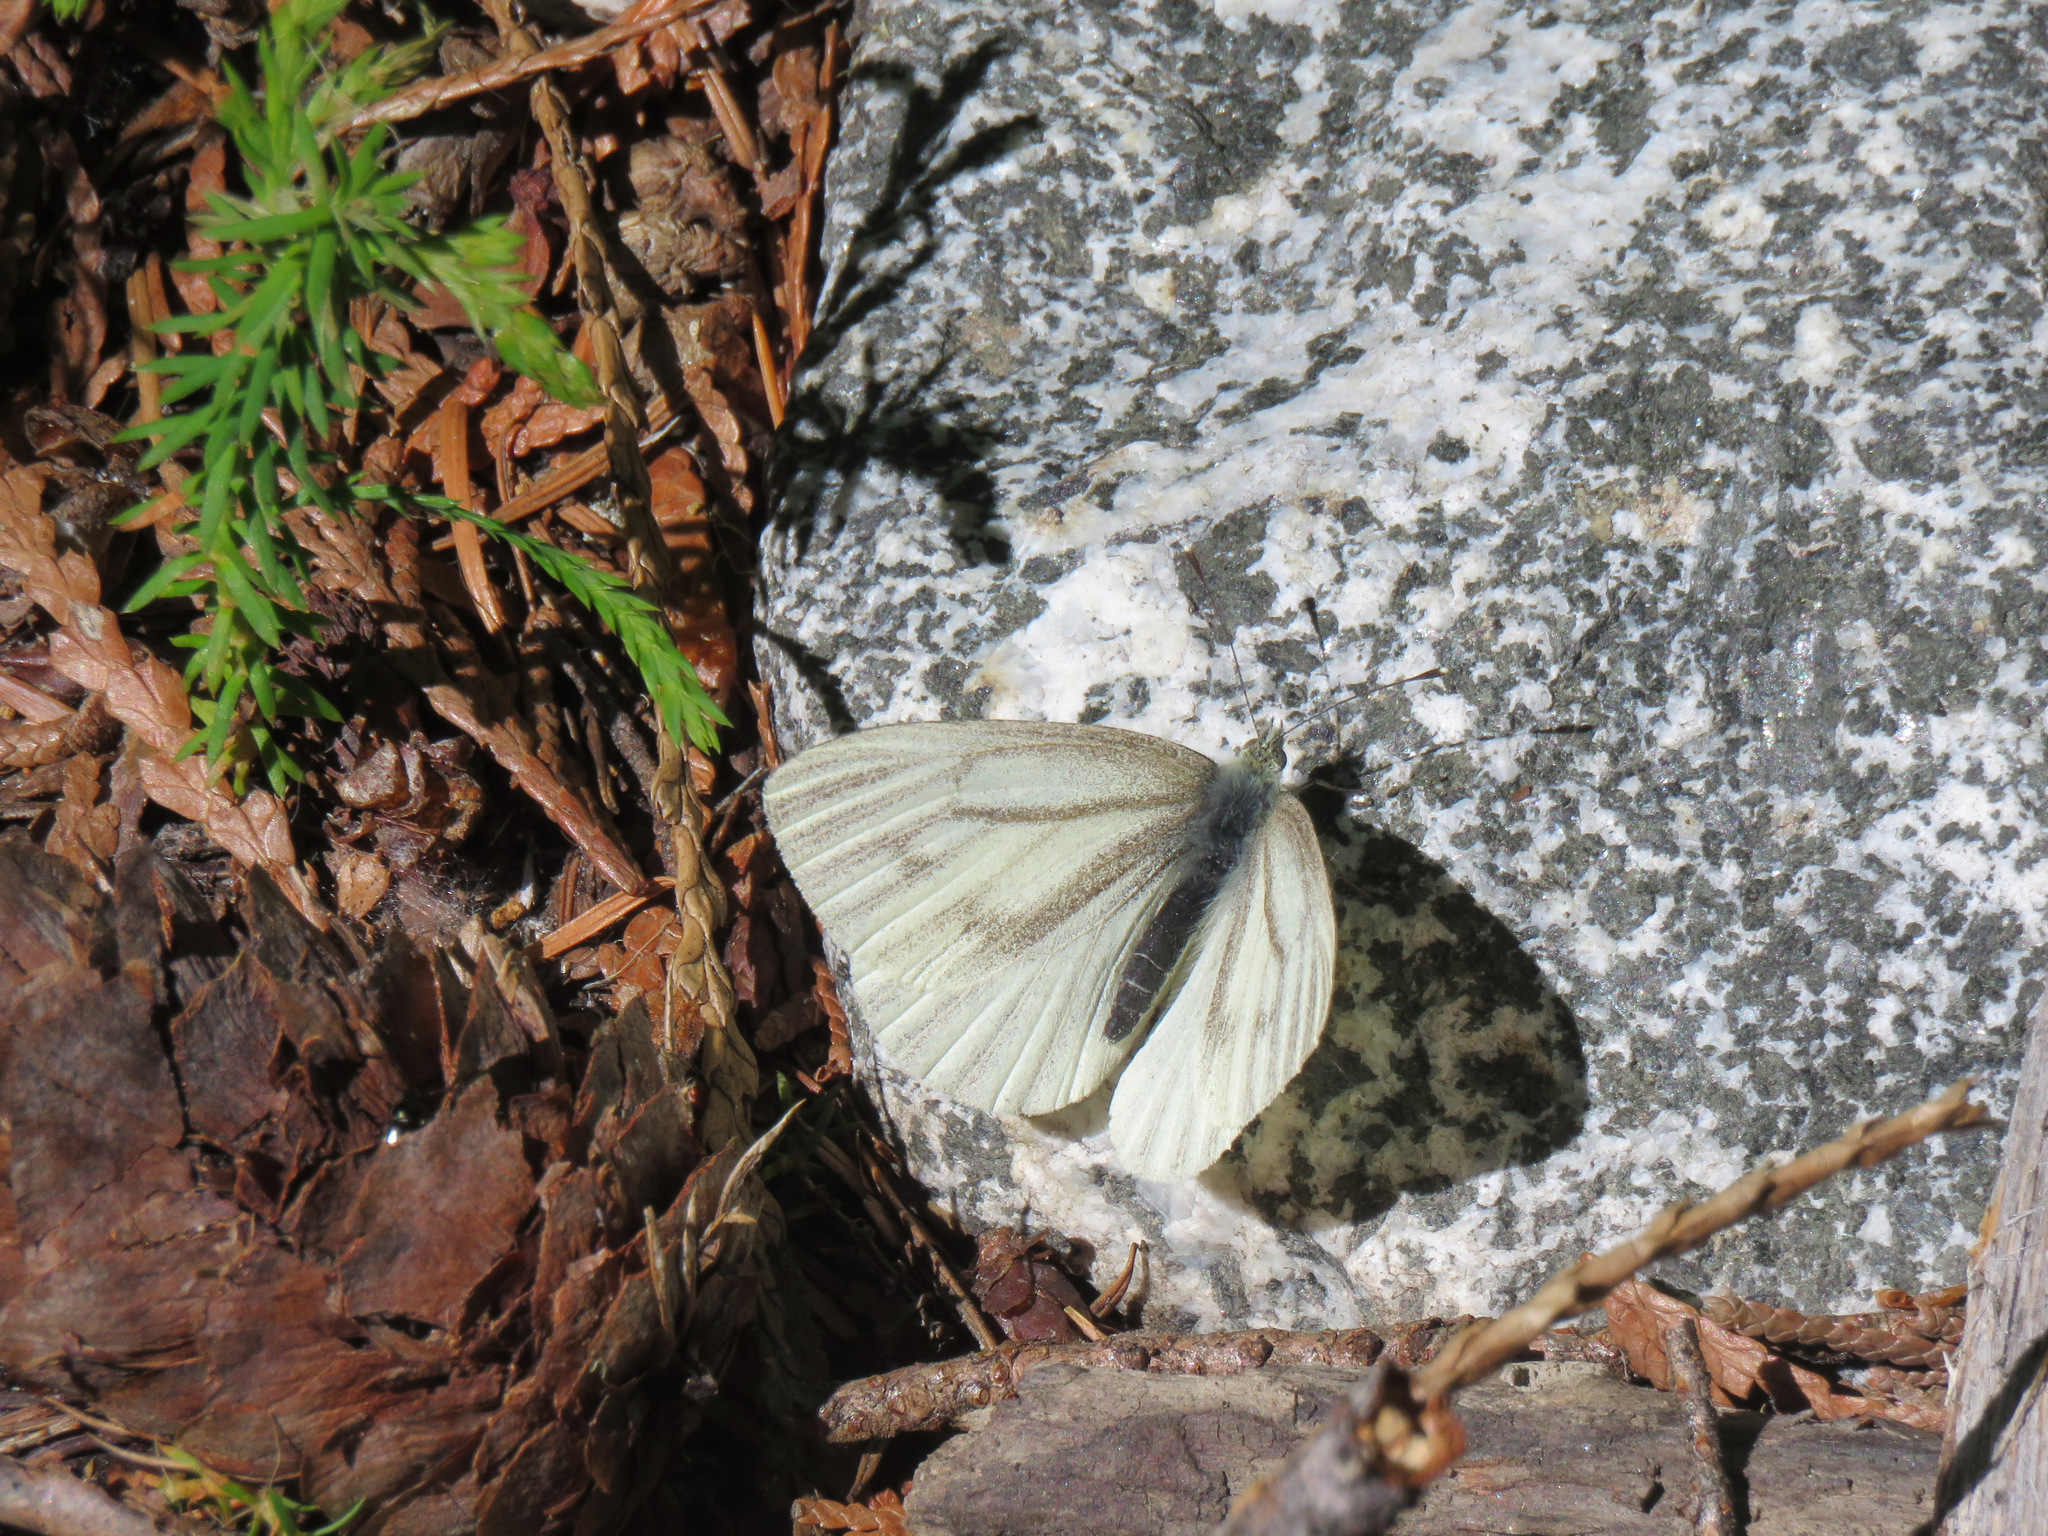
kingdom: Animalia
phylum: Arthropoda
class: Insecta
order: Lepidoptera
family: Pieridae
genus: Pieris
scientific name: Pieris marginalis
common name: Margined white
